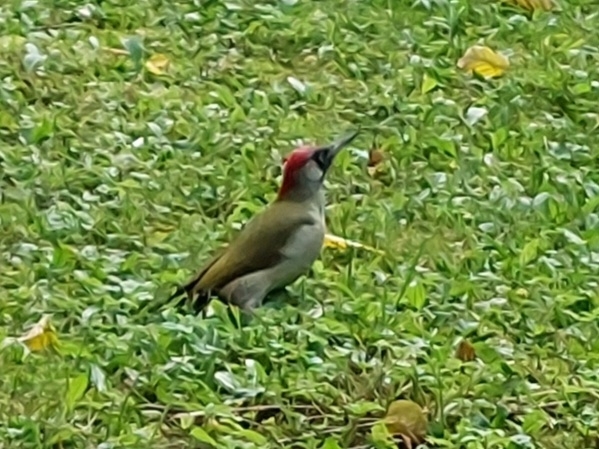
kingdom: Animalia
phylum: Chordata
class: Aves
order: Piciformes
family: Picidae
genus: Picus
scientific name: Picus viridis
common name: European green woodpecker
